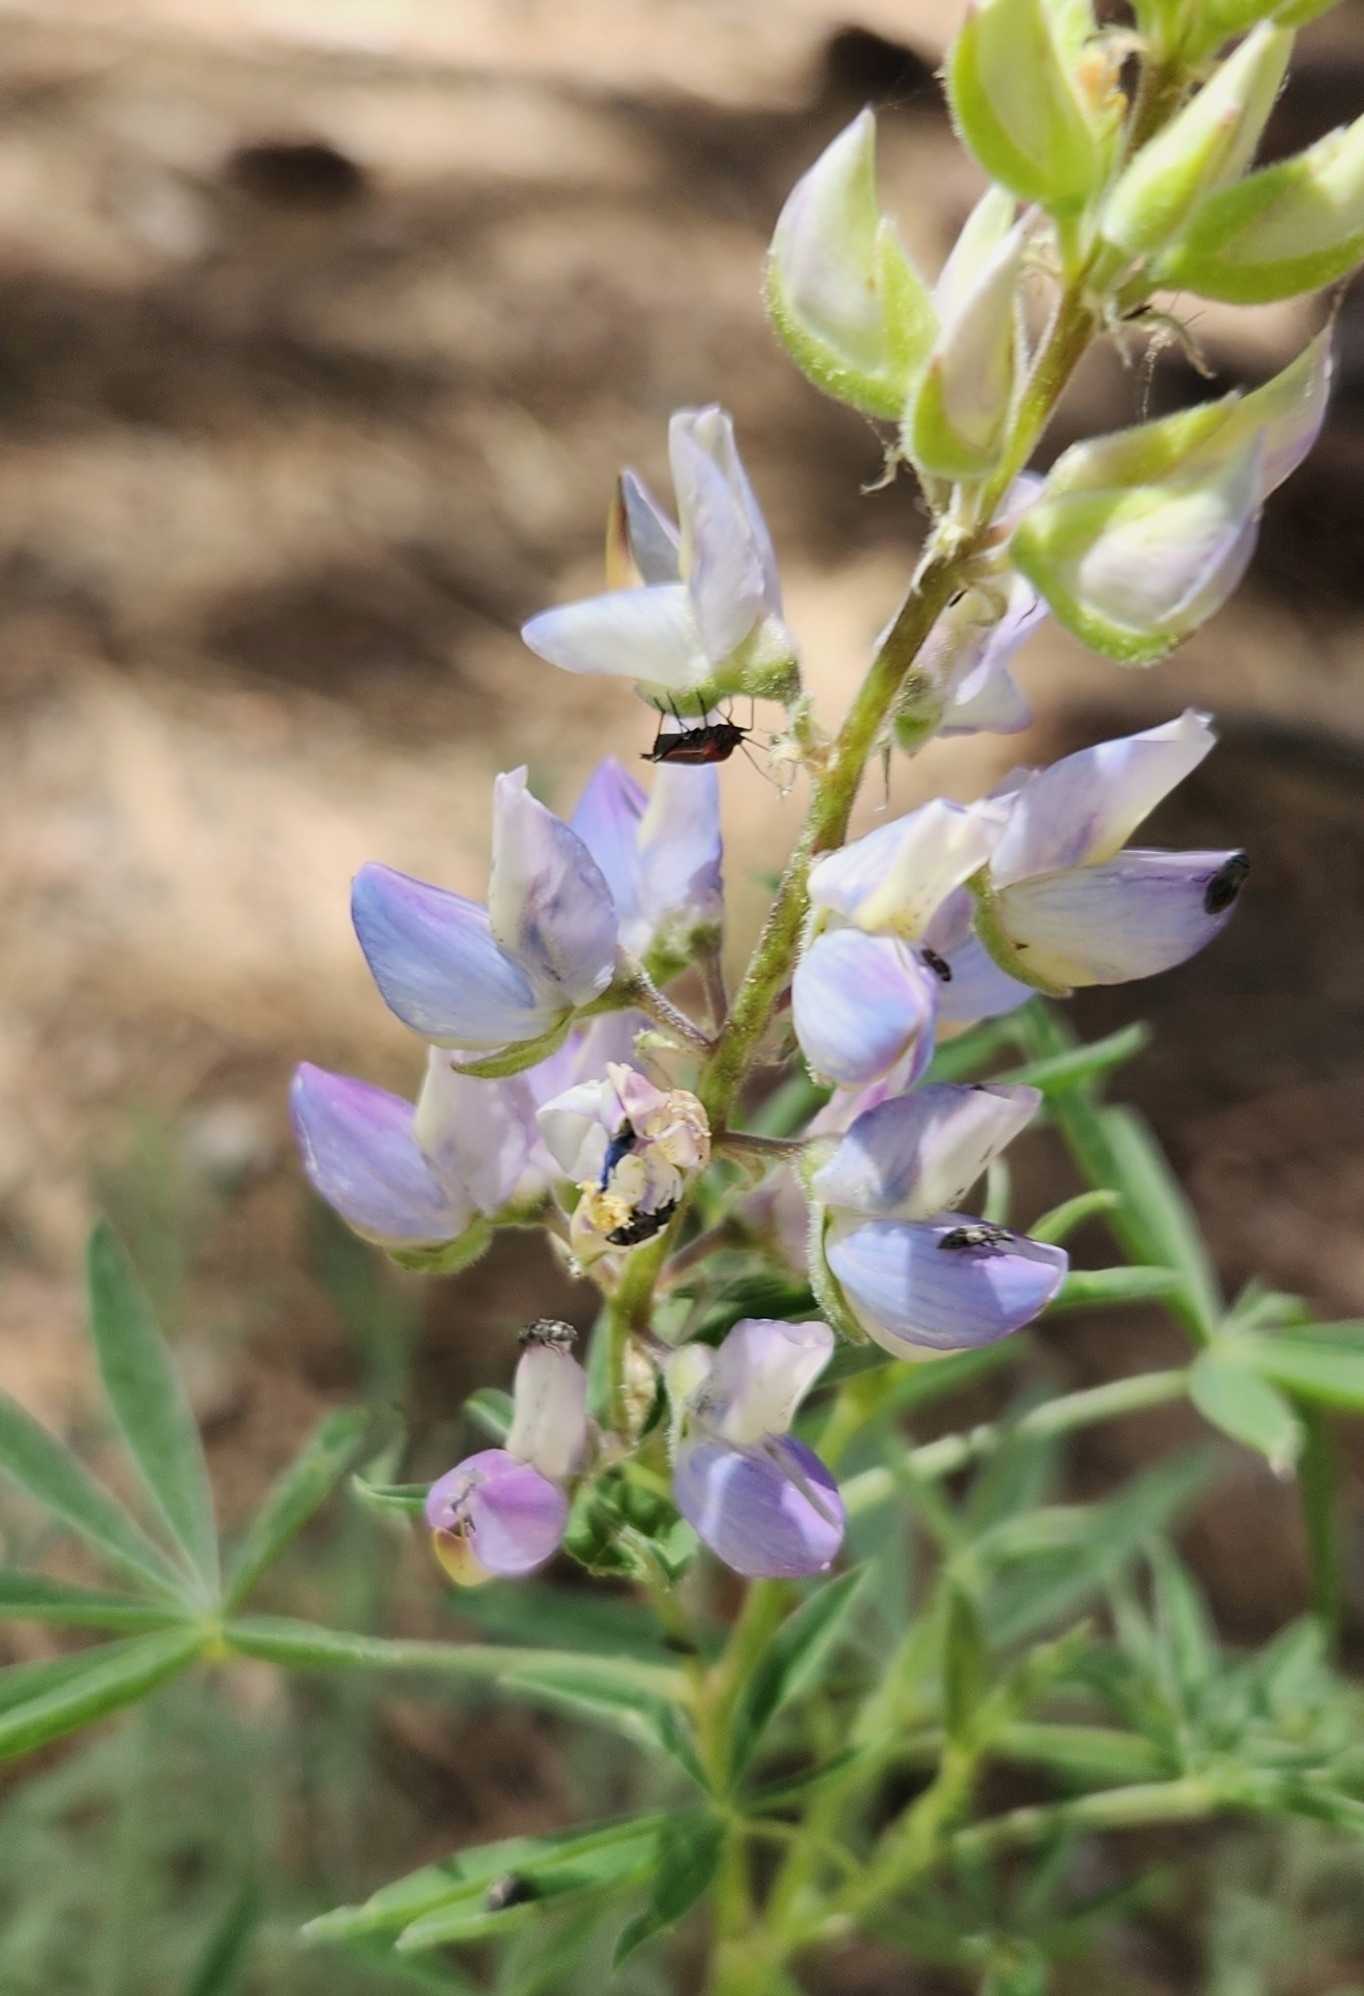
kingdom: Plantae
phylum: Tracheophyta
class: Magnoliopsida
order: Fabales
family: Fabaceae
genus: Lupinus
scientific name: Lupinus hyacinthinus
